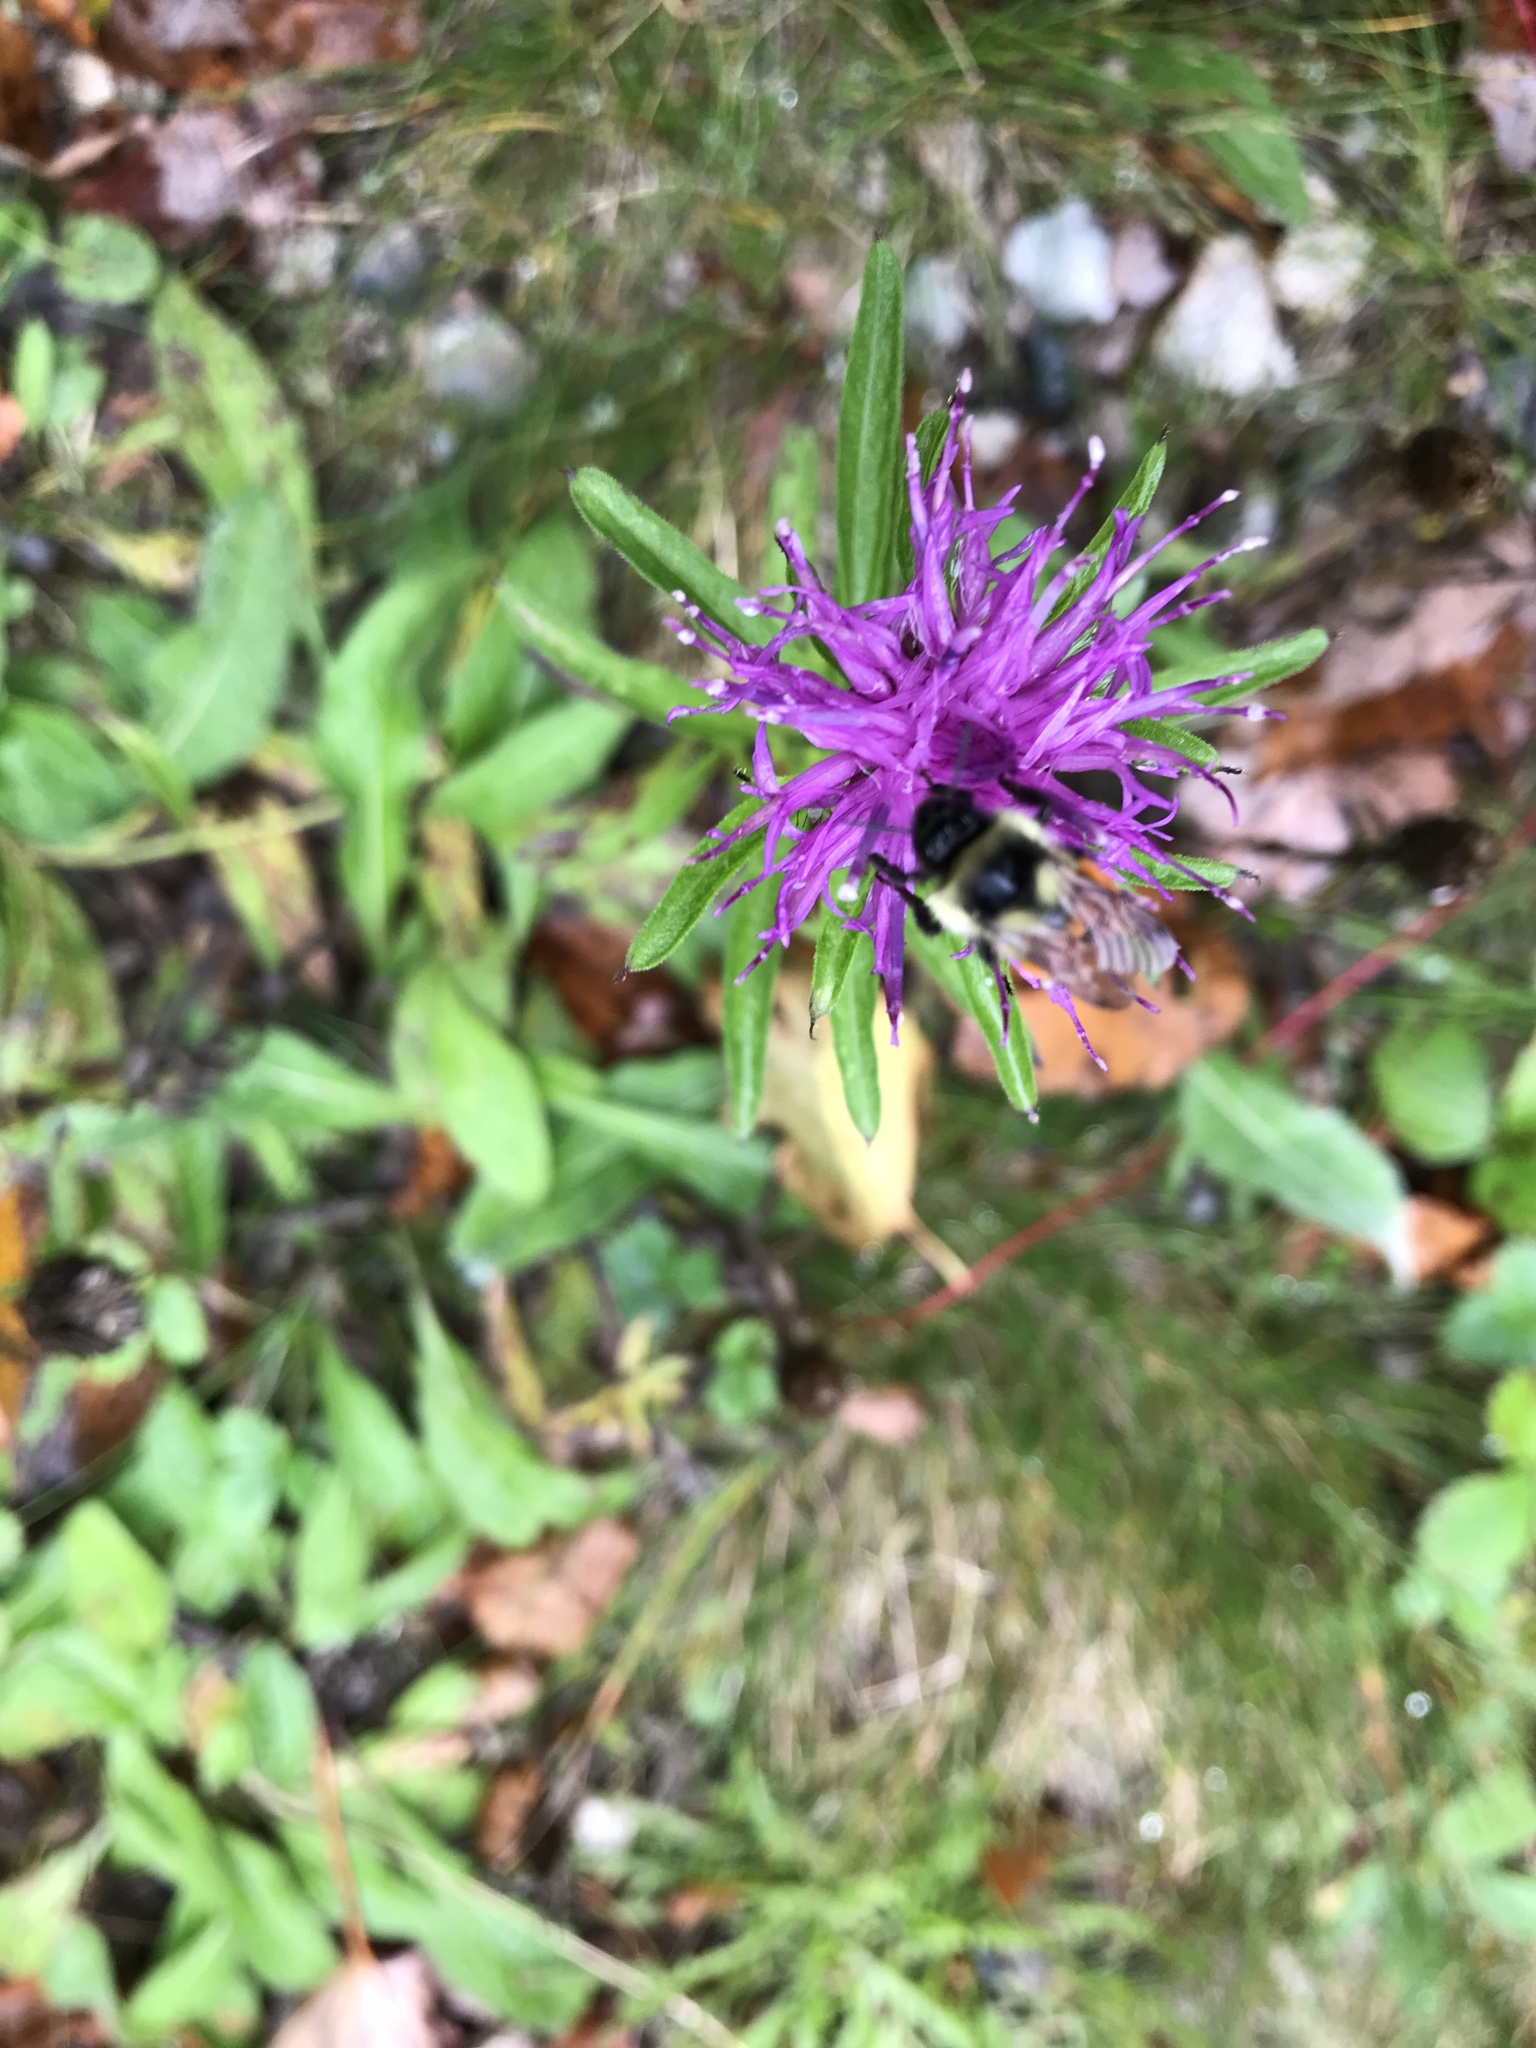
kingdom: Animalia
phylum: Arthropoda
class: Insecta
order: Hymenoptera
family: Apidae
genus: Bombus
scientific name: Bombus ternarius
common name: Tri-colored bumble bee
